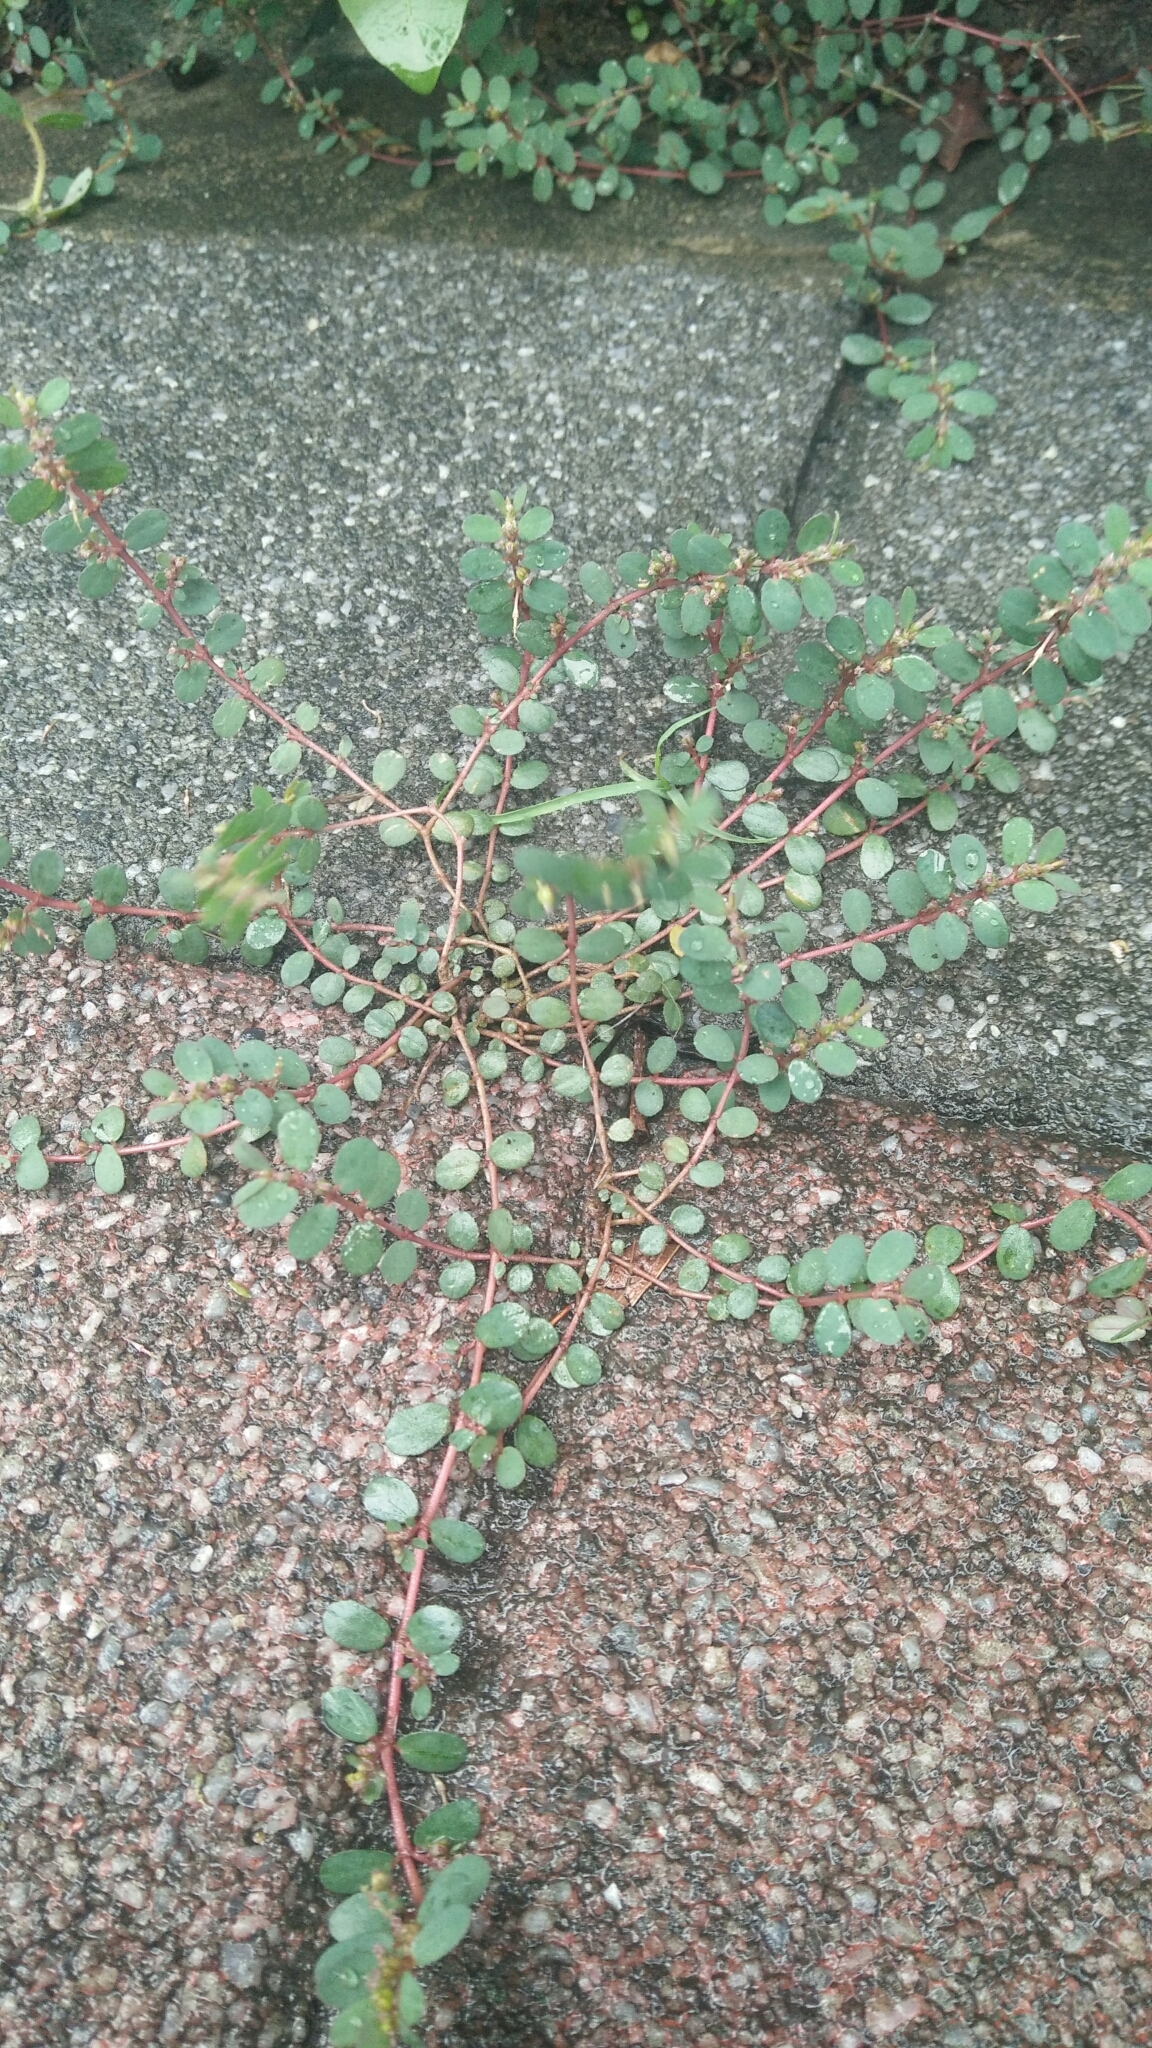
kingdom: Plantae
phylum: Tracheophyta
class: Magnoliopsida
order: Malpighiales
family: Euphorbiaceae
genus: Euphorbia
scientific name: Euphorbia prostrata
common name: Prostrate sandmat
